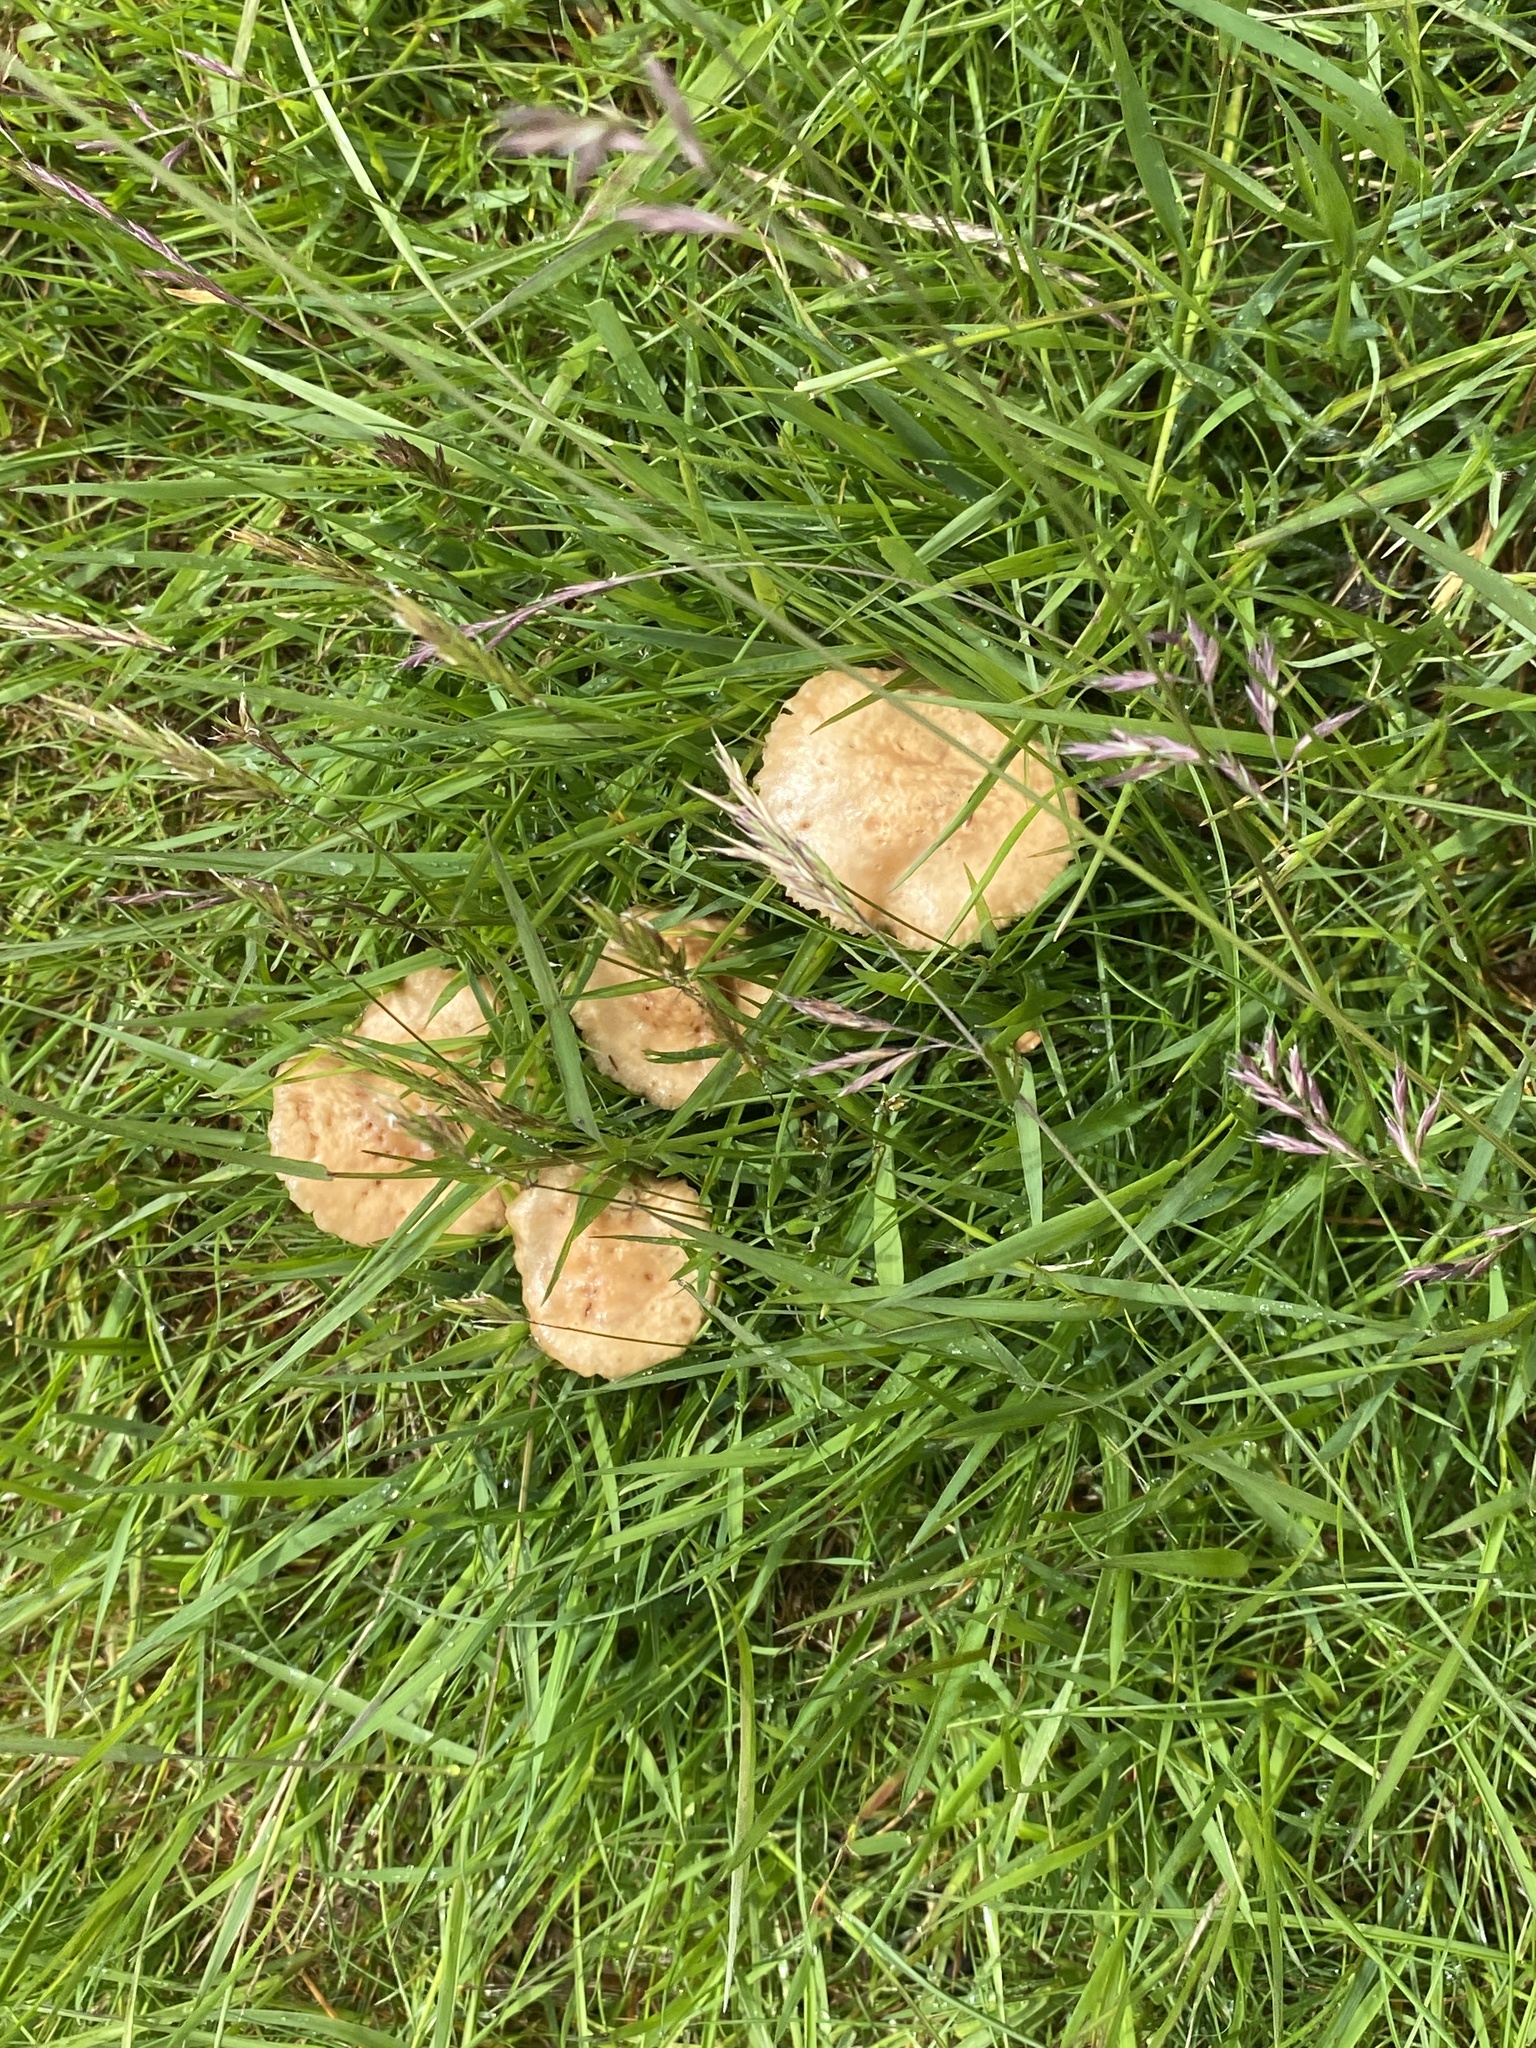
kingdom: Fungi
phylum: Basidiomycota
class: Agaricomycetes
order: Agaricales
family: Marasmiaceae
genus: Marasmius
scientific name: Marasmius oreades
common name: Fairy ring champignon
